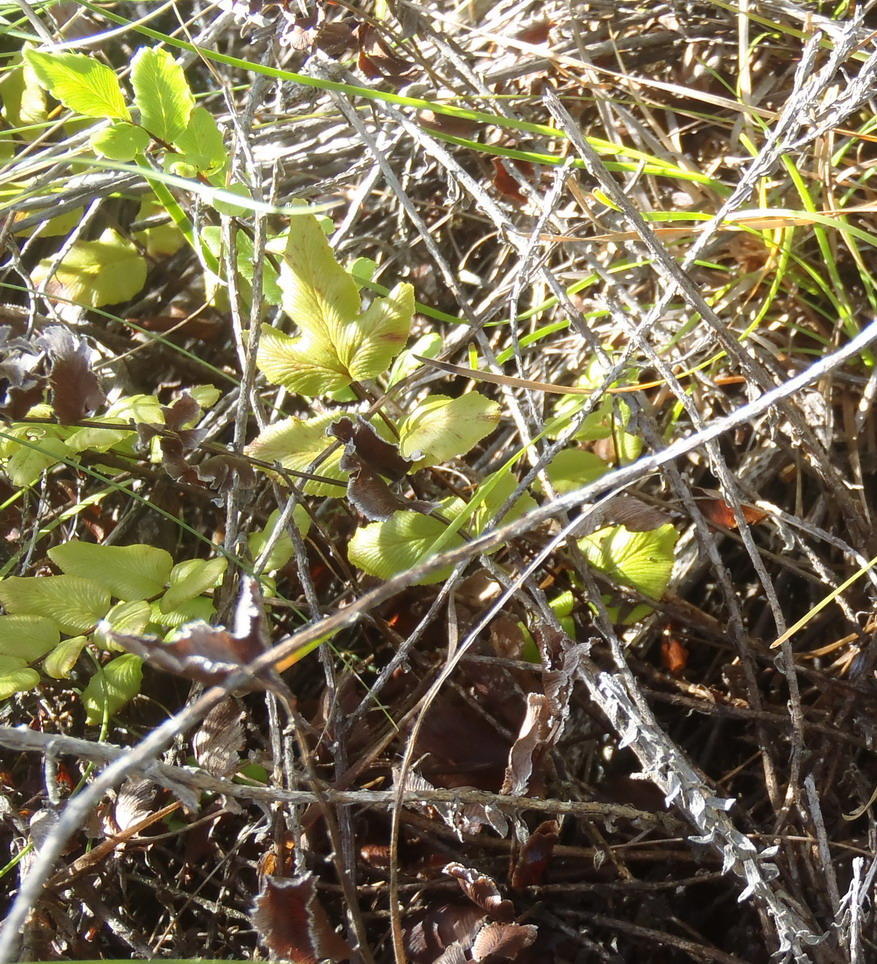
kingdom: Plantae
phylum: Tracheophyta
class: Polypodiopsida
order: Polypodiales
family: Pteridaceae
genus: Cheilanthes
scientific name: Cheilanthes viridis
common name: Green cliffbrake
